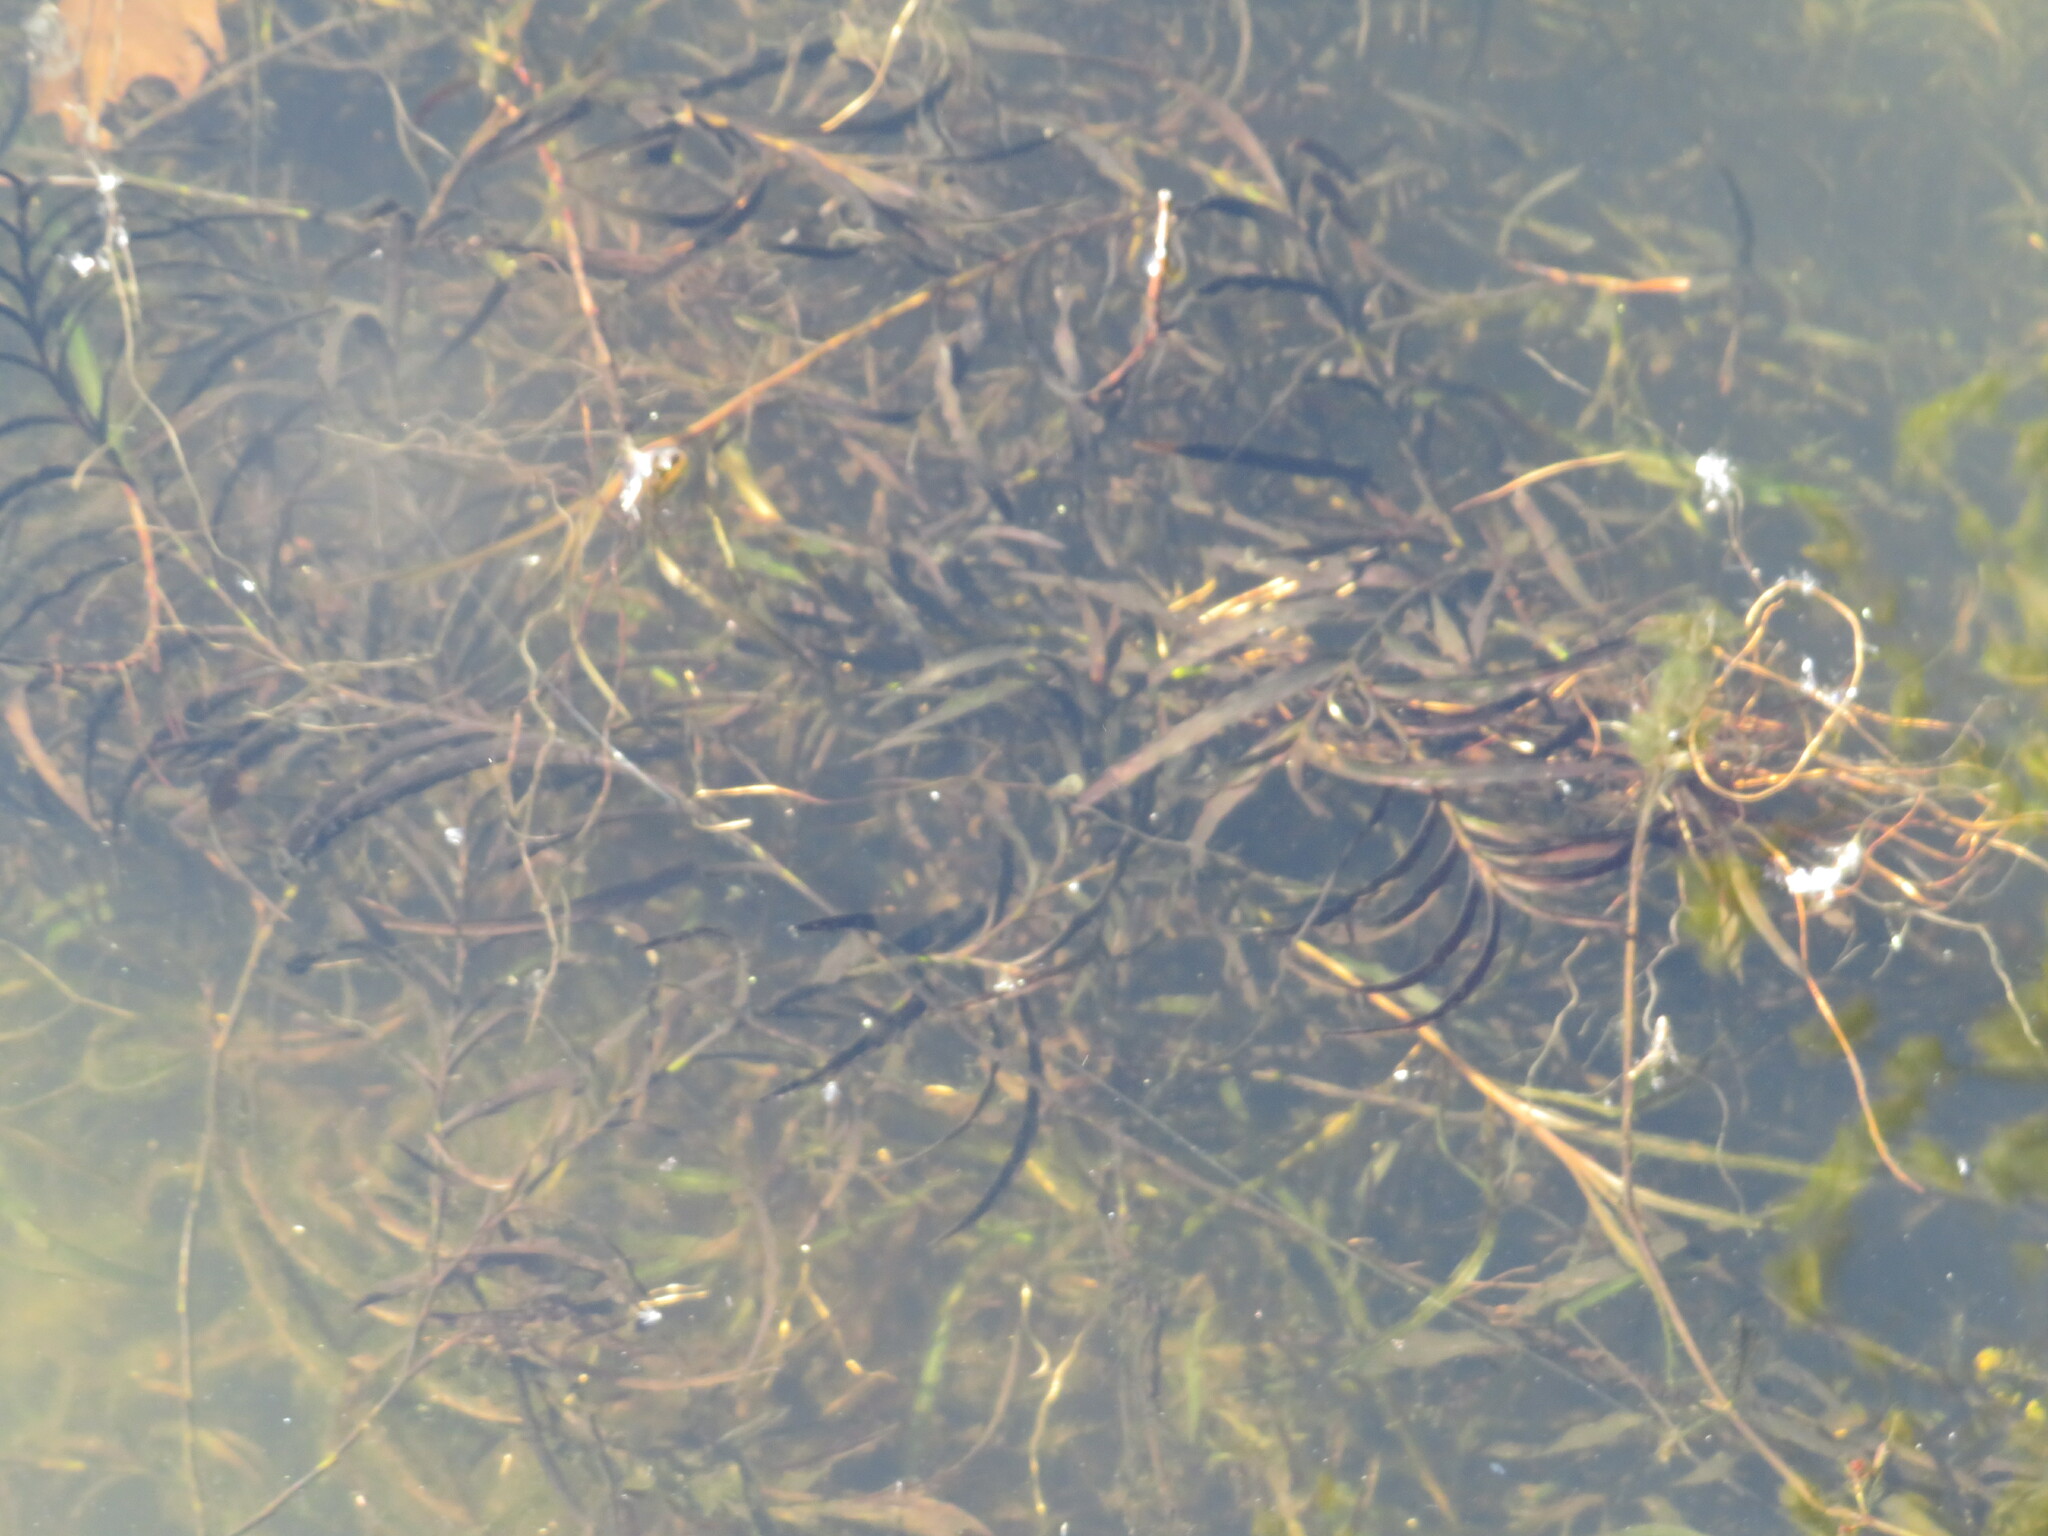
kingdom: Plantae
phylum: Tracheophyta
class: Liliopsida
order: Alismatales
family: Potamogetonaceae
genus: Potamogeton
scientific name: Potamogeton robbinsii
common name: Fern pondweed
